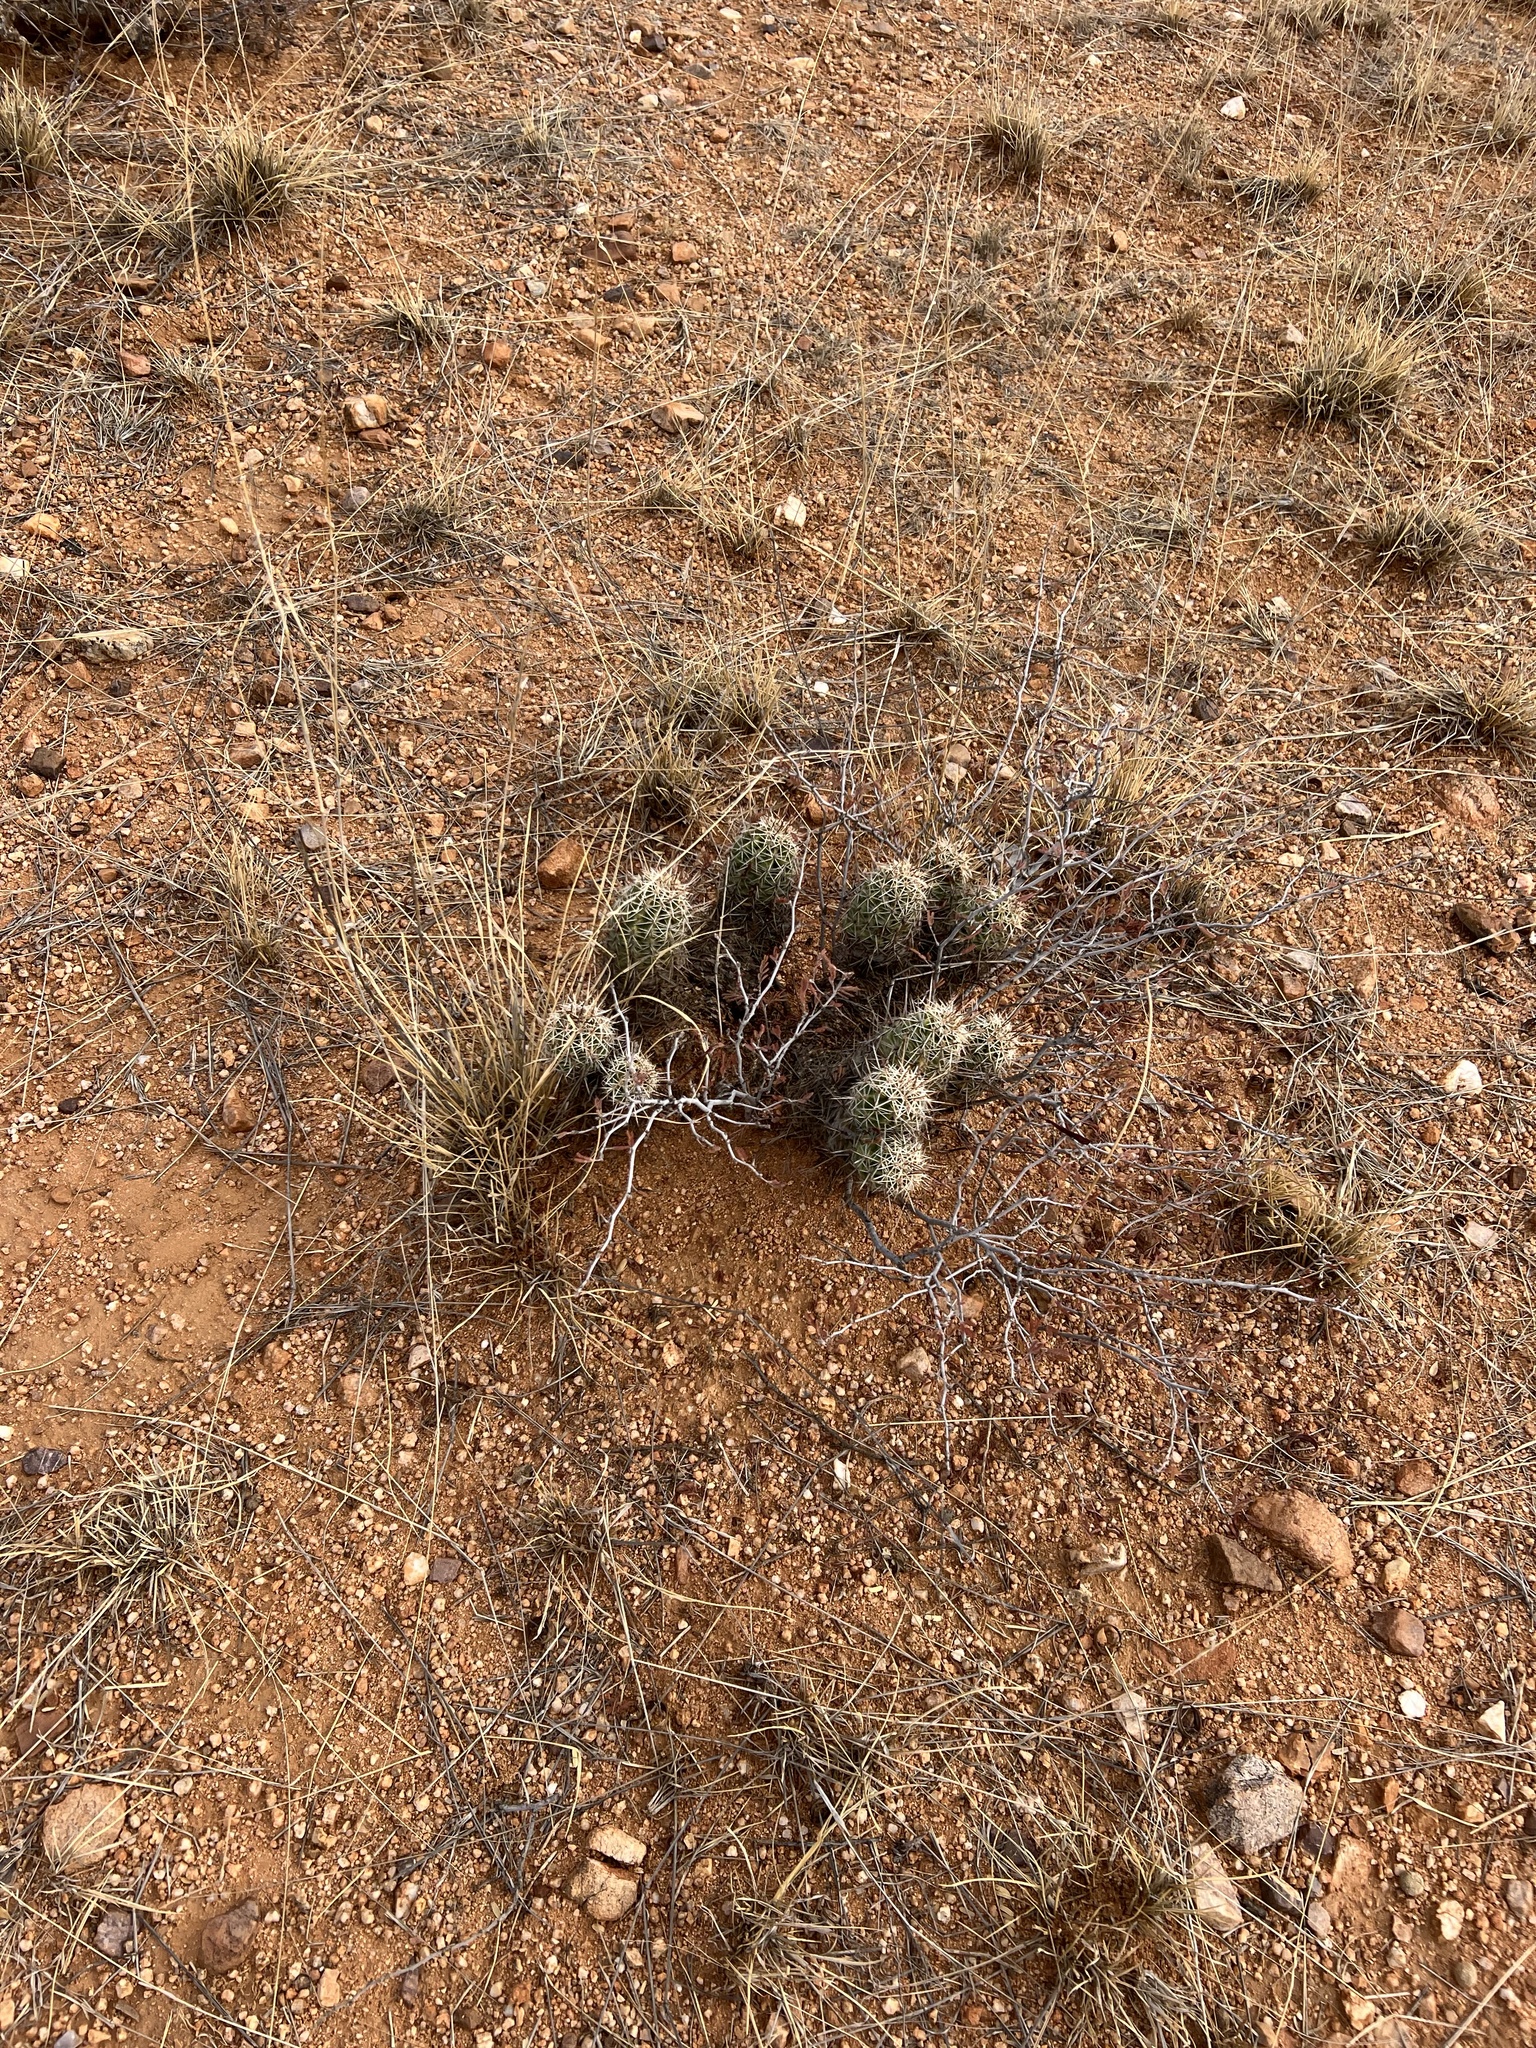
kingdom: Plantae
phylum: Tracheophyta
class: Magnoliopsida
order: Caryophyllales
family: Cactaceae
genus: Echinocereus
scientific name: Echinocereus fasciculatus
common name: Bundle hedgehog
